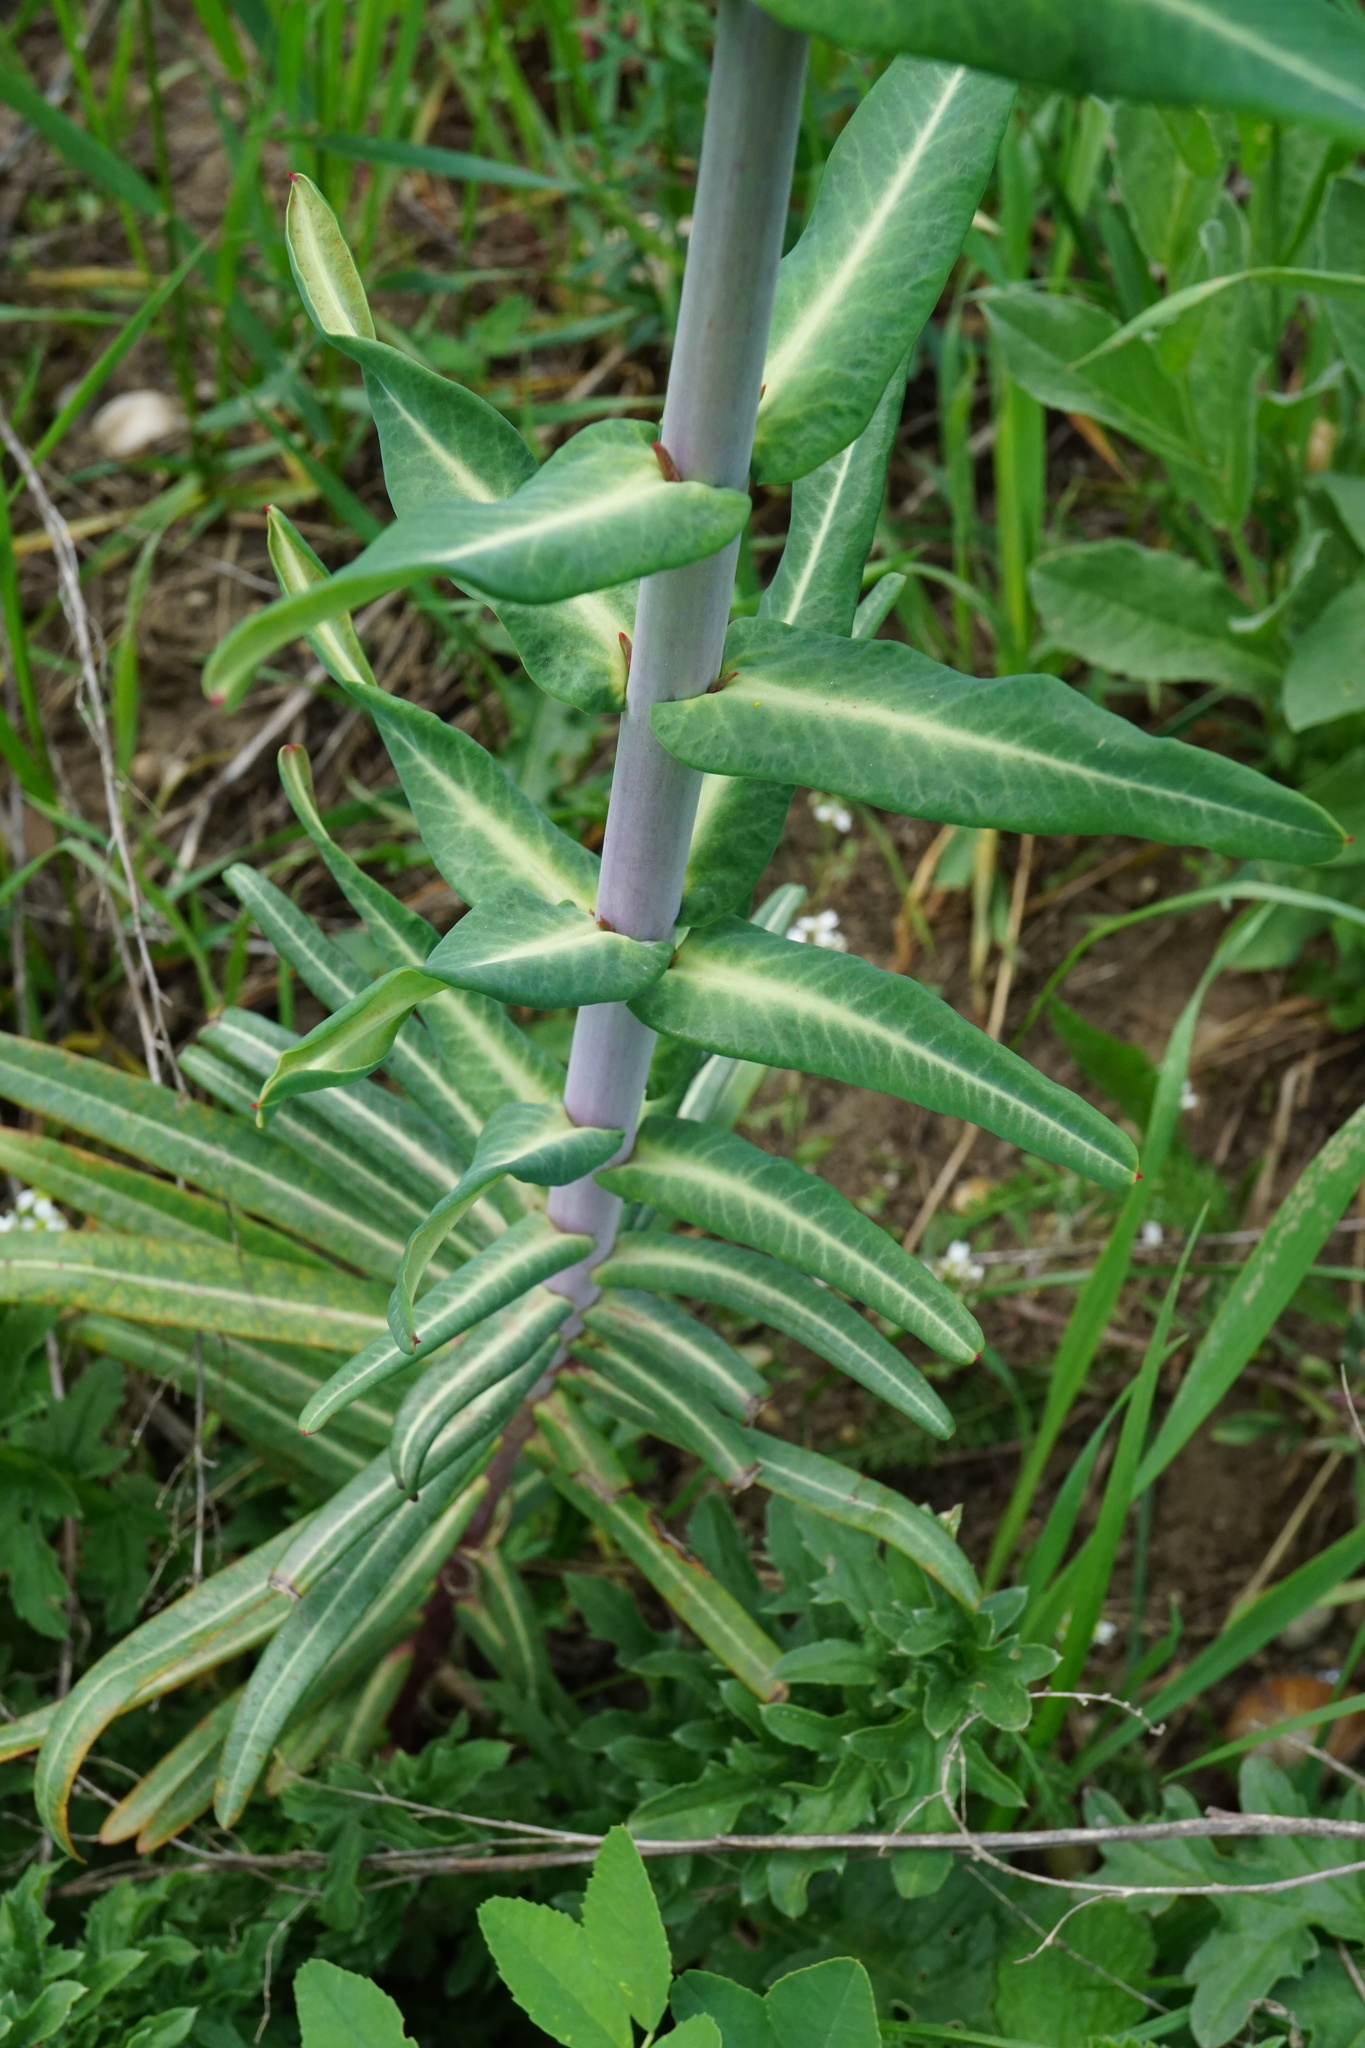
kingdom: Plantae
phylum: Tracheophyta
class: Magnoliopsida
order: Malpighiales
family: Euphorbiaceae
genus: Euphorbia
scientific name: Euphorbia lathyris
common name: Caper spurge
